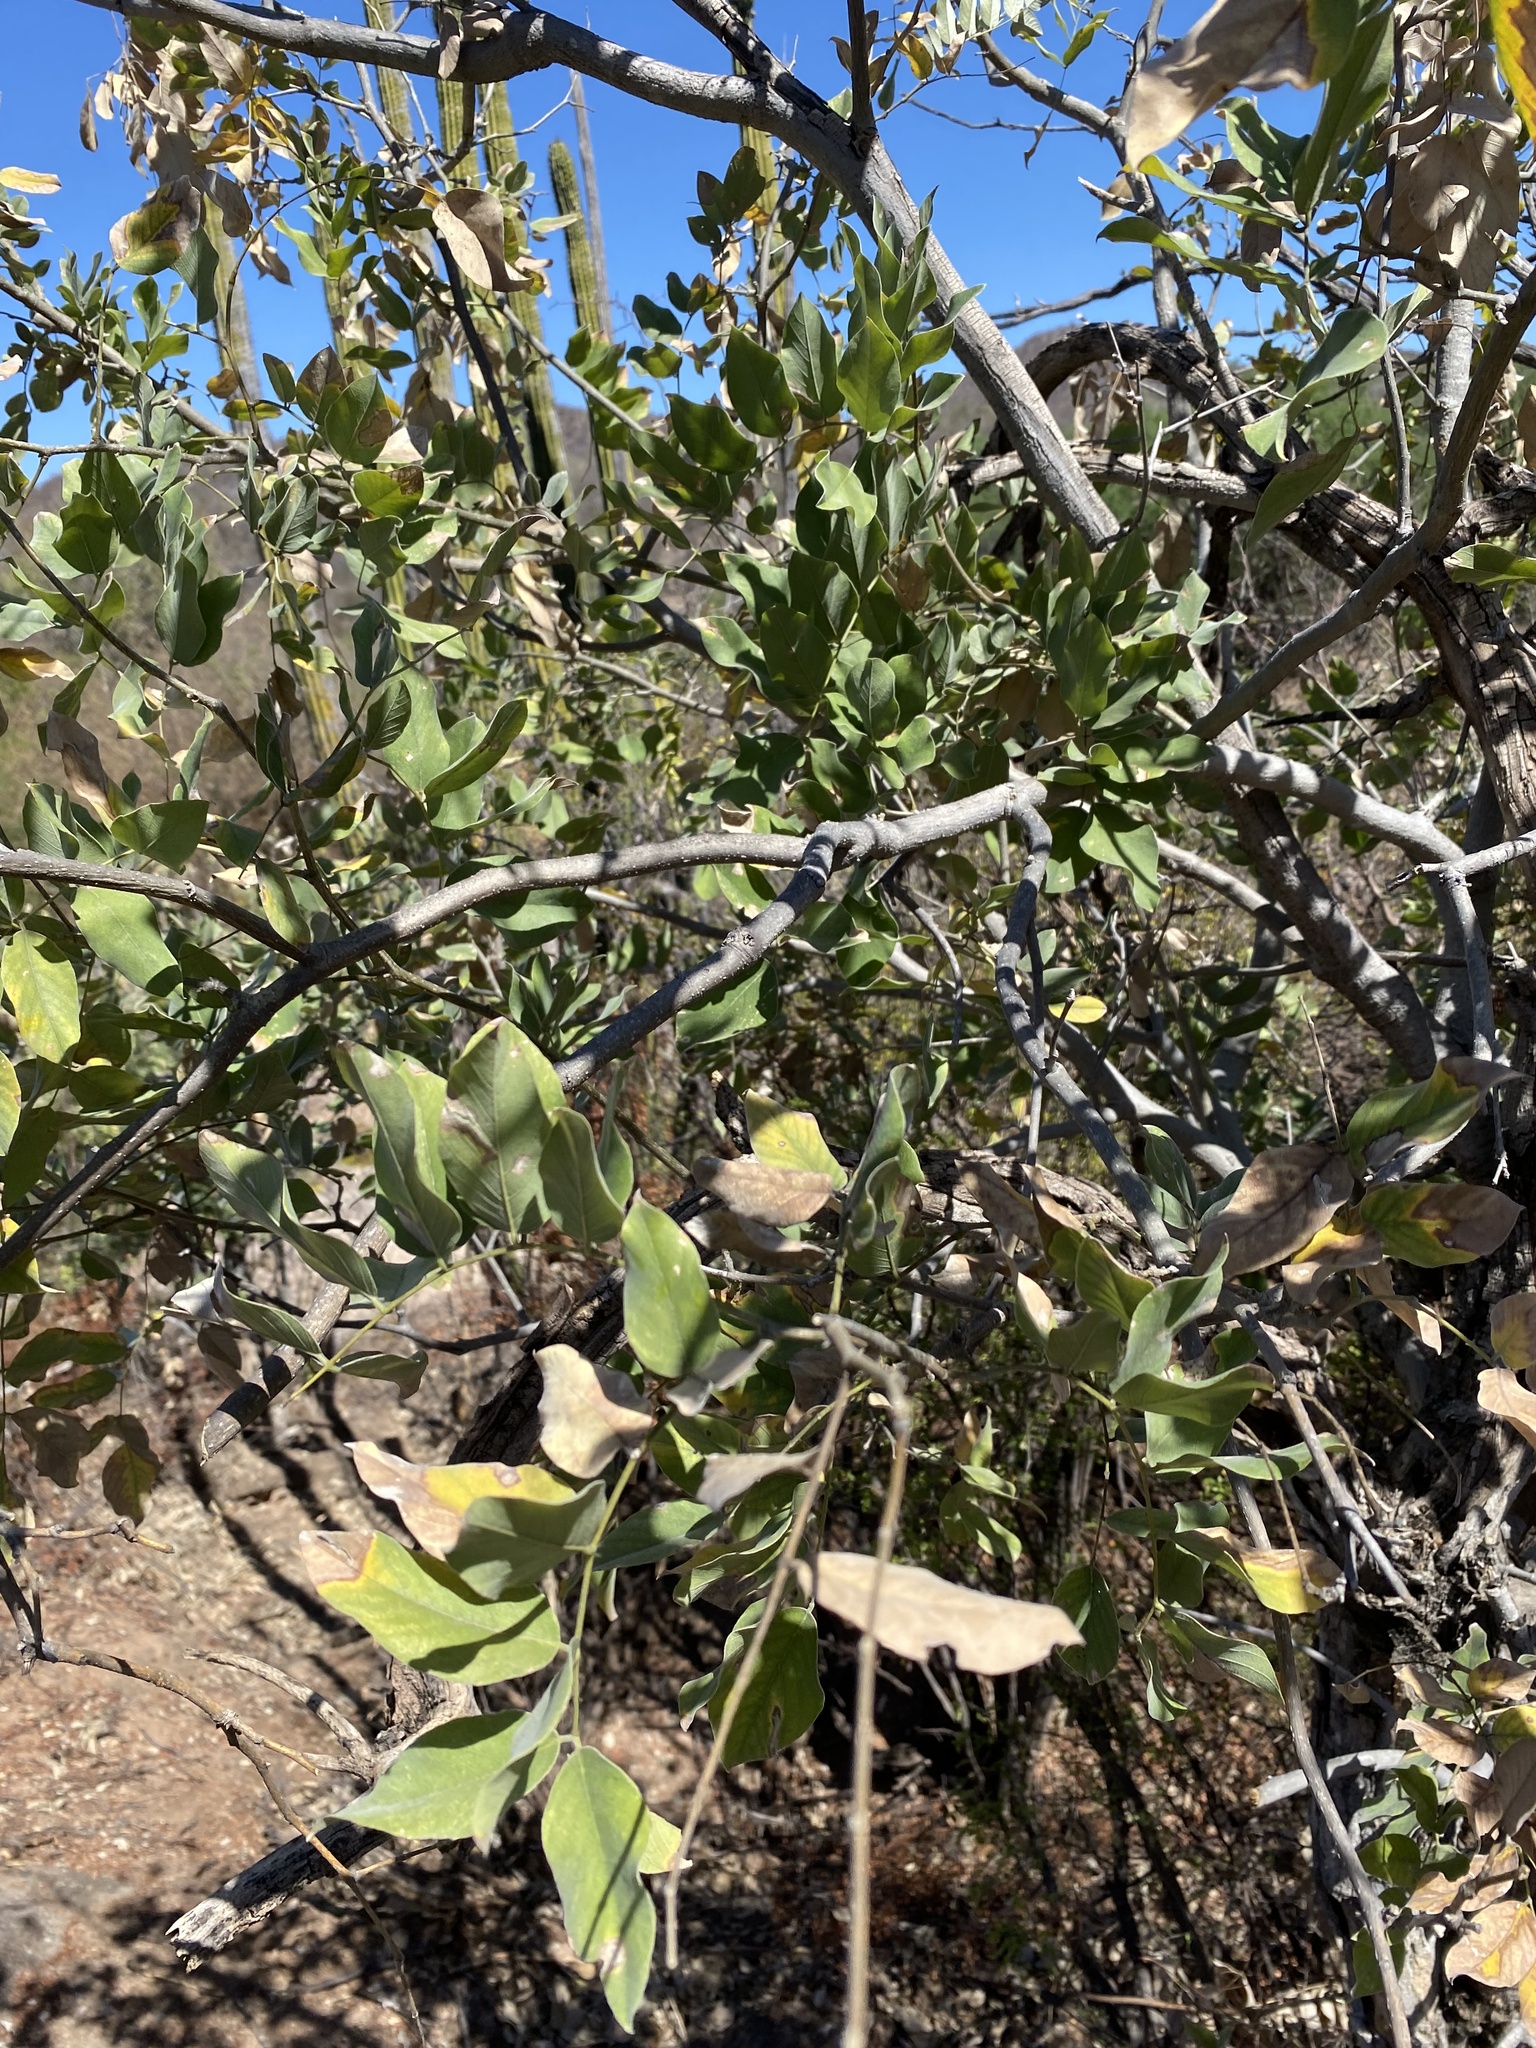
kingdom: Plantae
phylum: Tracheophyta
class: Magnoliopsida
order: Fabales
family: Fabaceae
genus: Piscidia
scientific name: Piscidia mollis
